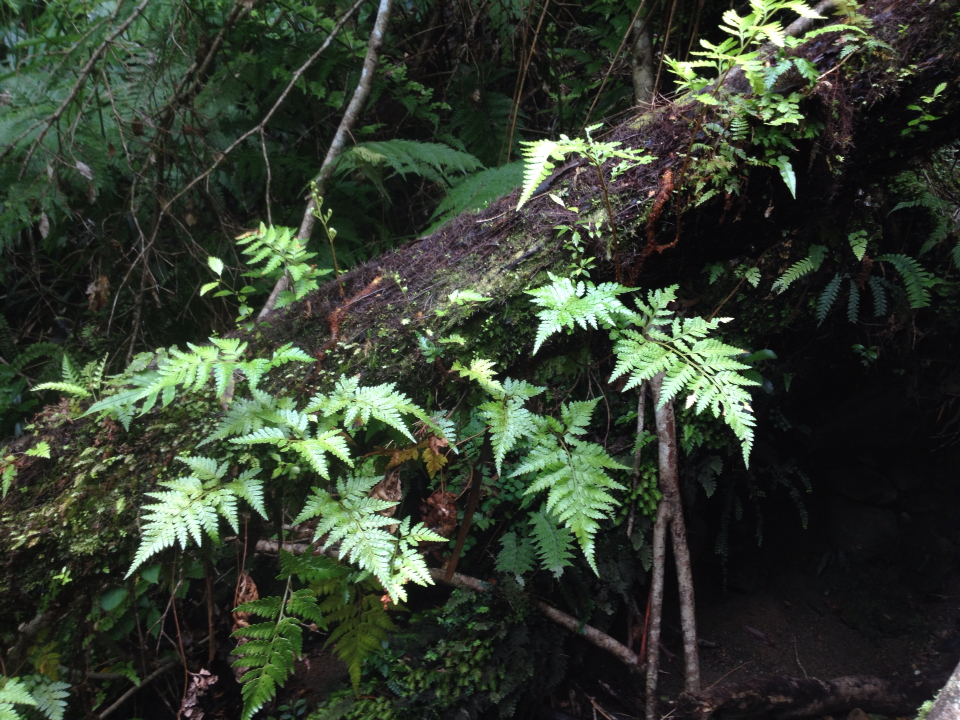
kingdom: Plantae
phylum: Tracheophyta
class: Polypodiopsida
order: Polypodiales
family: Dryopteridaceae
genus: Rumohra
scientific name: Rumohra adiantiformis
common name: Leather fern
